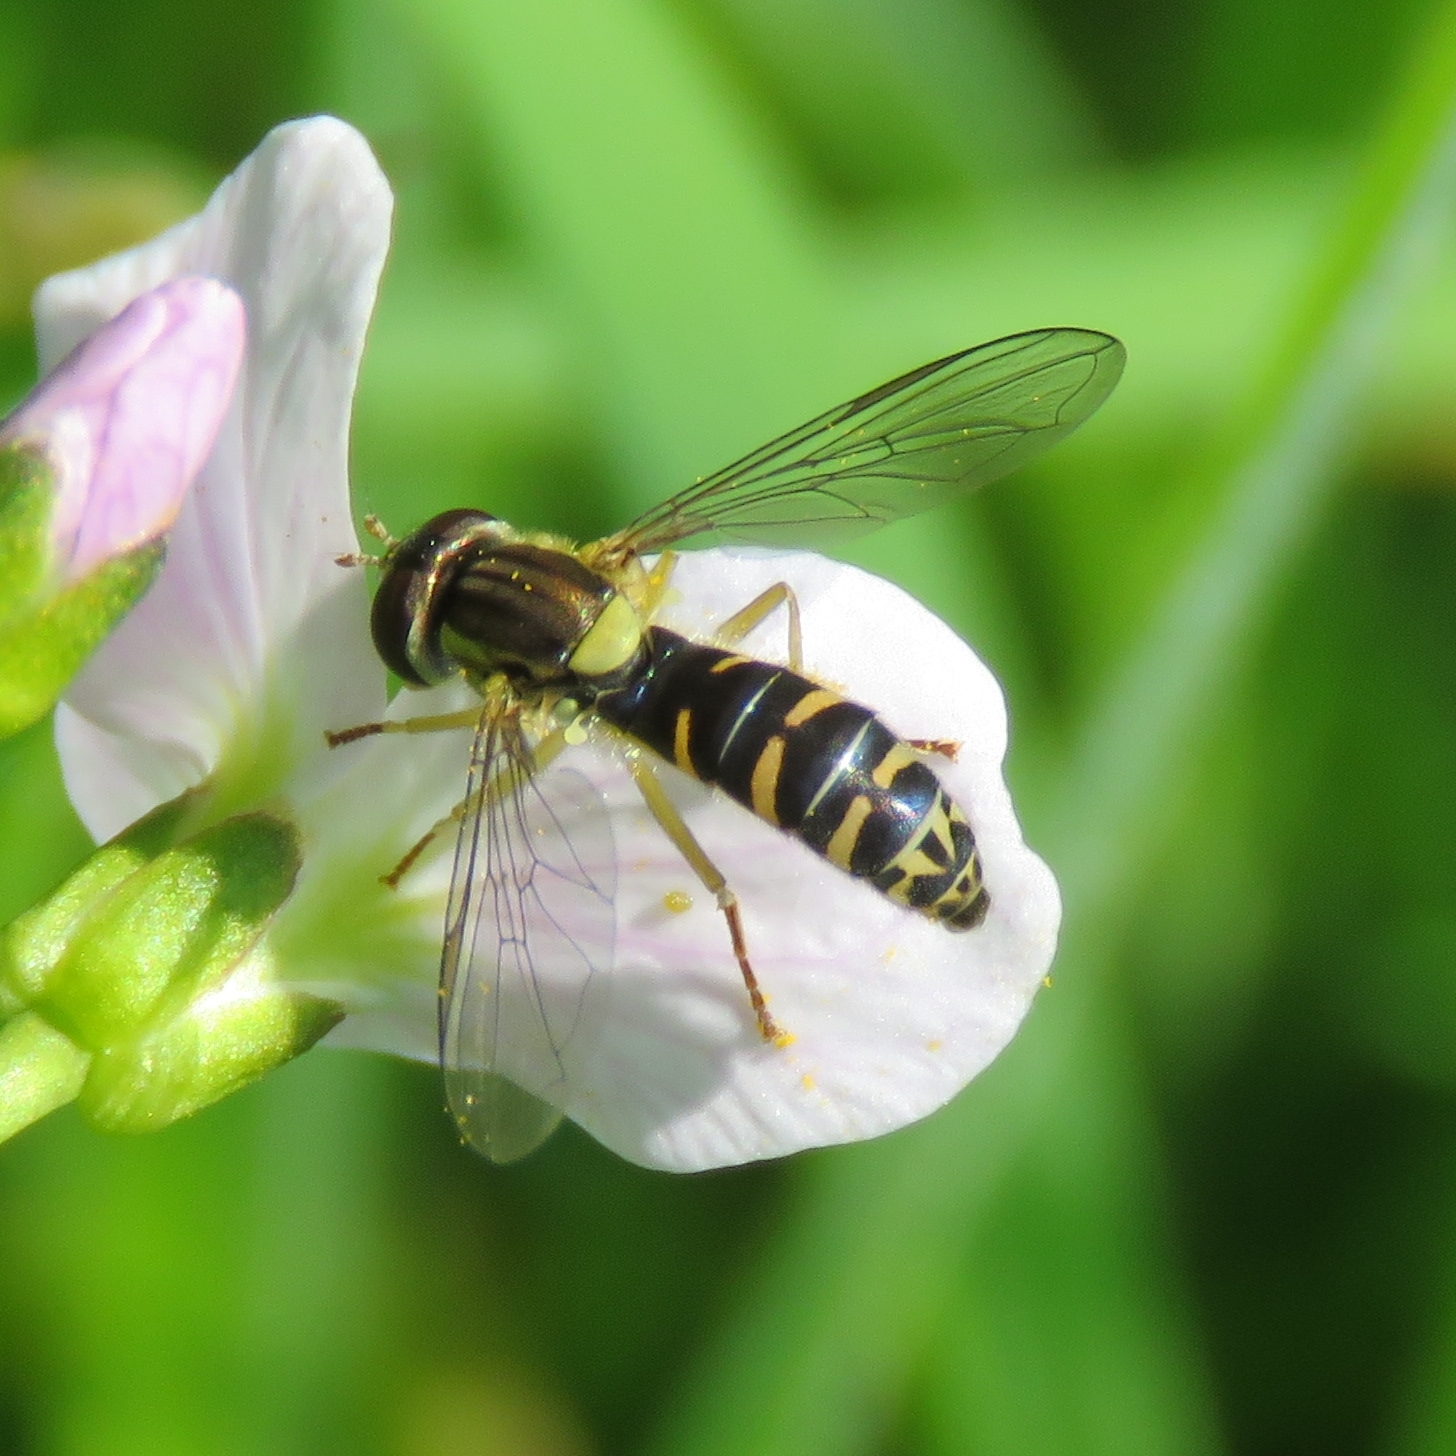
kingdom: Animalia
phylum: Arthropoda
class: Insecta
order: Diptera
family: Syrphidae
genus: Sphaerophoria
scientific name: Sphaerophoria
